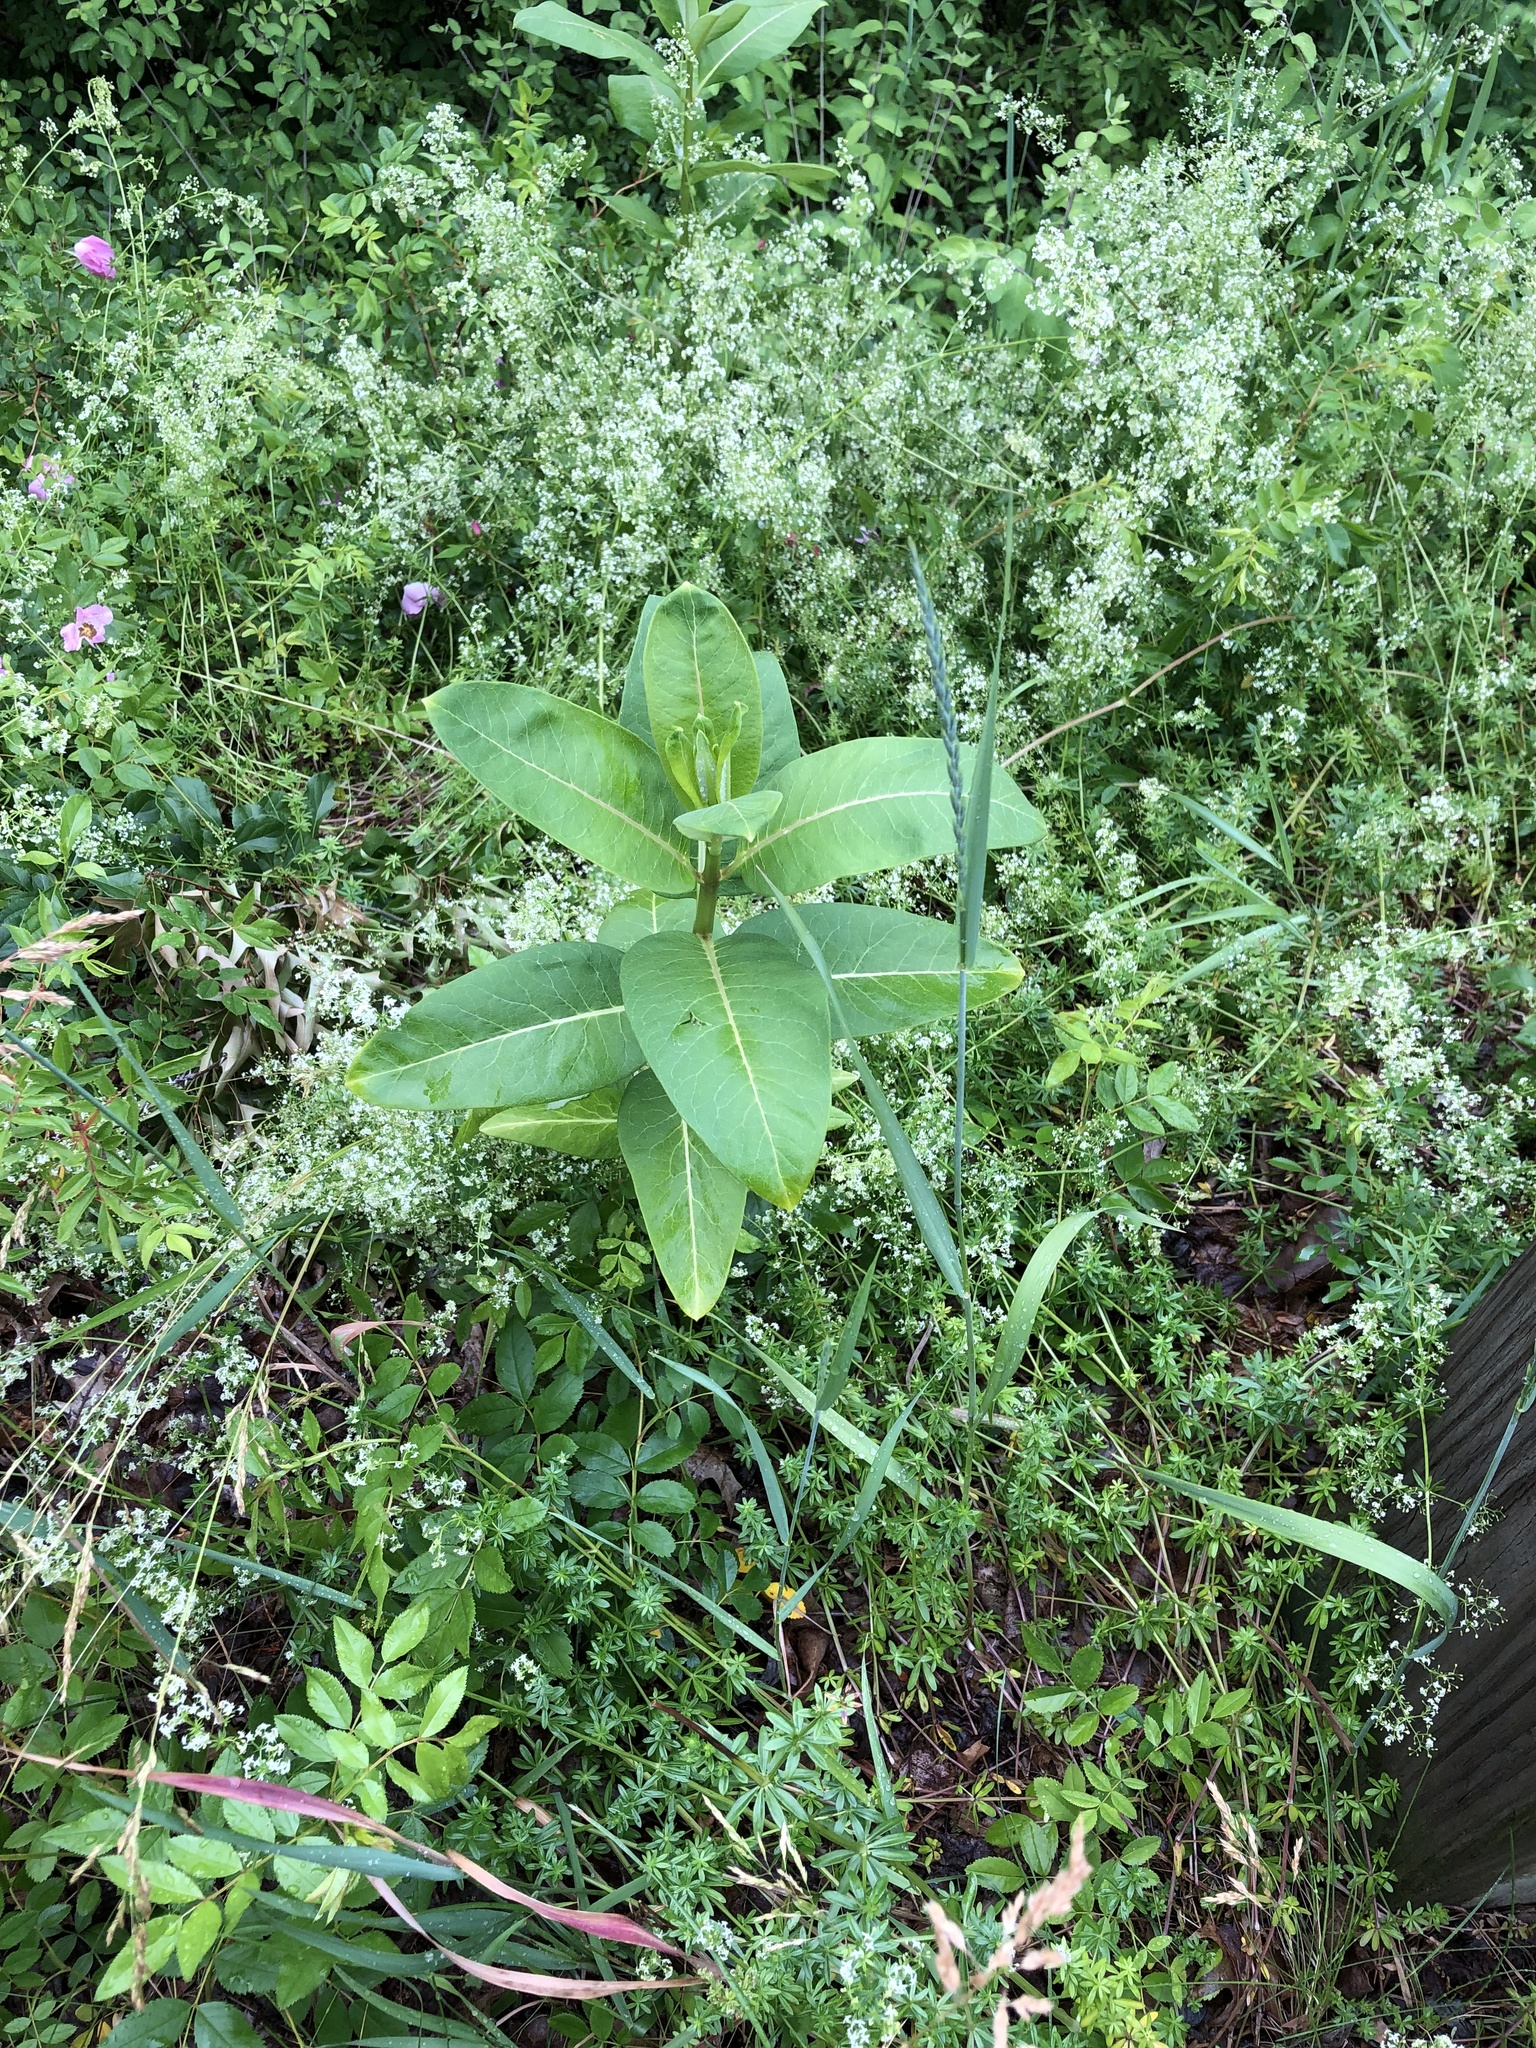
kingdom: Plantae
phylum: Tracheophyta
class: Magnoliopsida
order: Gentianales
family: Apocynaceae
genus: Asclepias
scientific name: Asclepias syriaca
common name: Common milkweed
